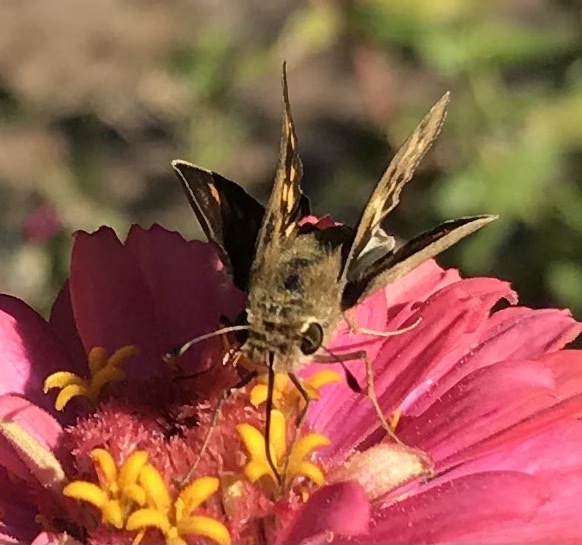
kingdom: Animalia
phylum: Arthropoda
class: Insecta
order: Lepidoptera
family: Hesperiidae
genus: Hylephila
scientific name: Hylephila phyleus
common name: Fiery skipper
